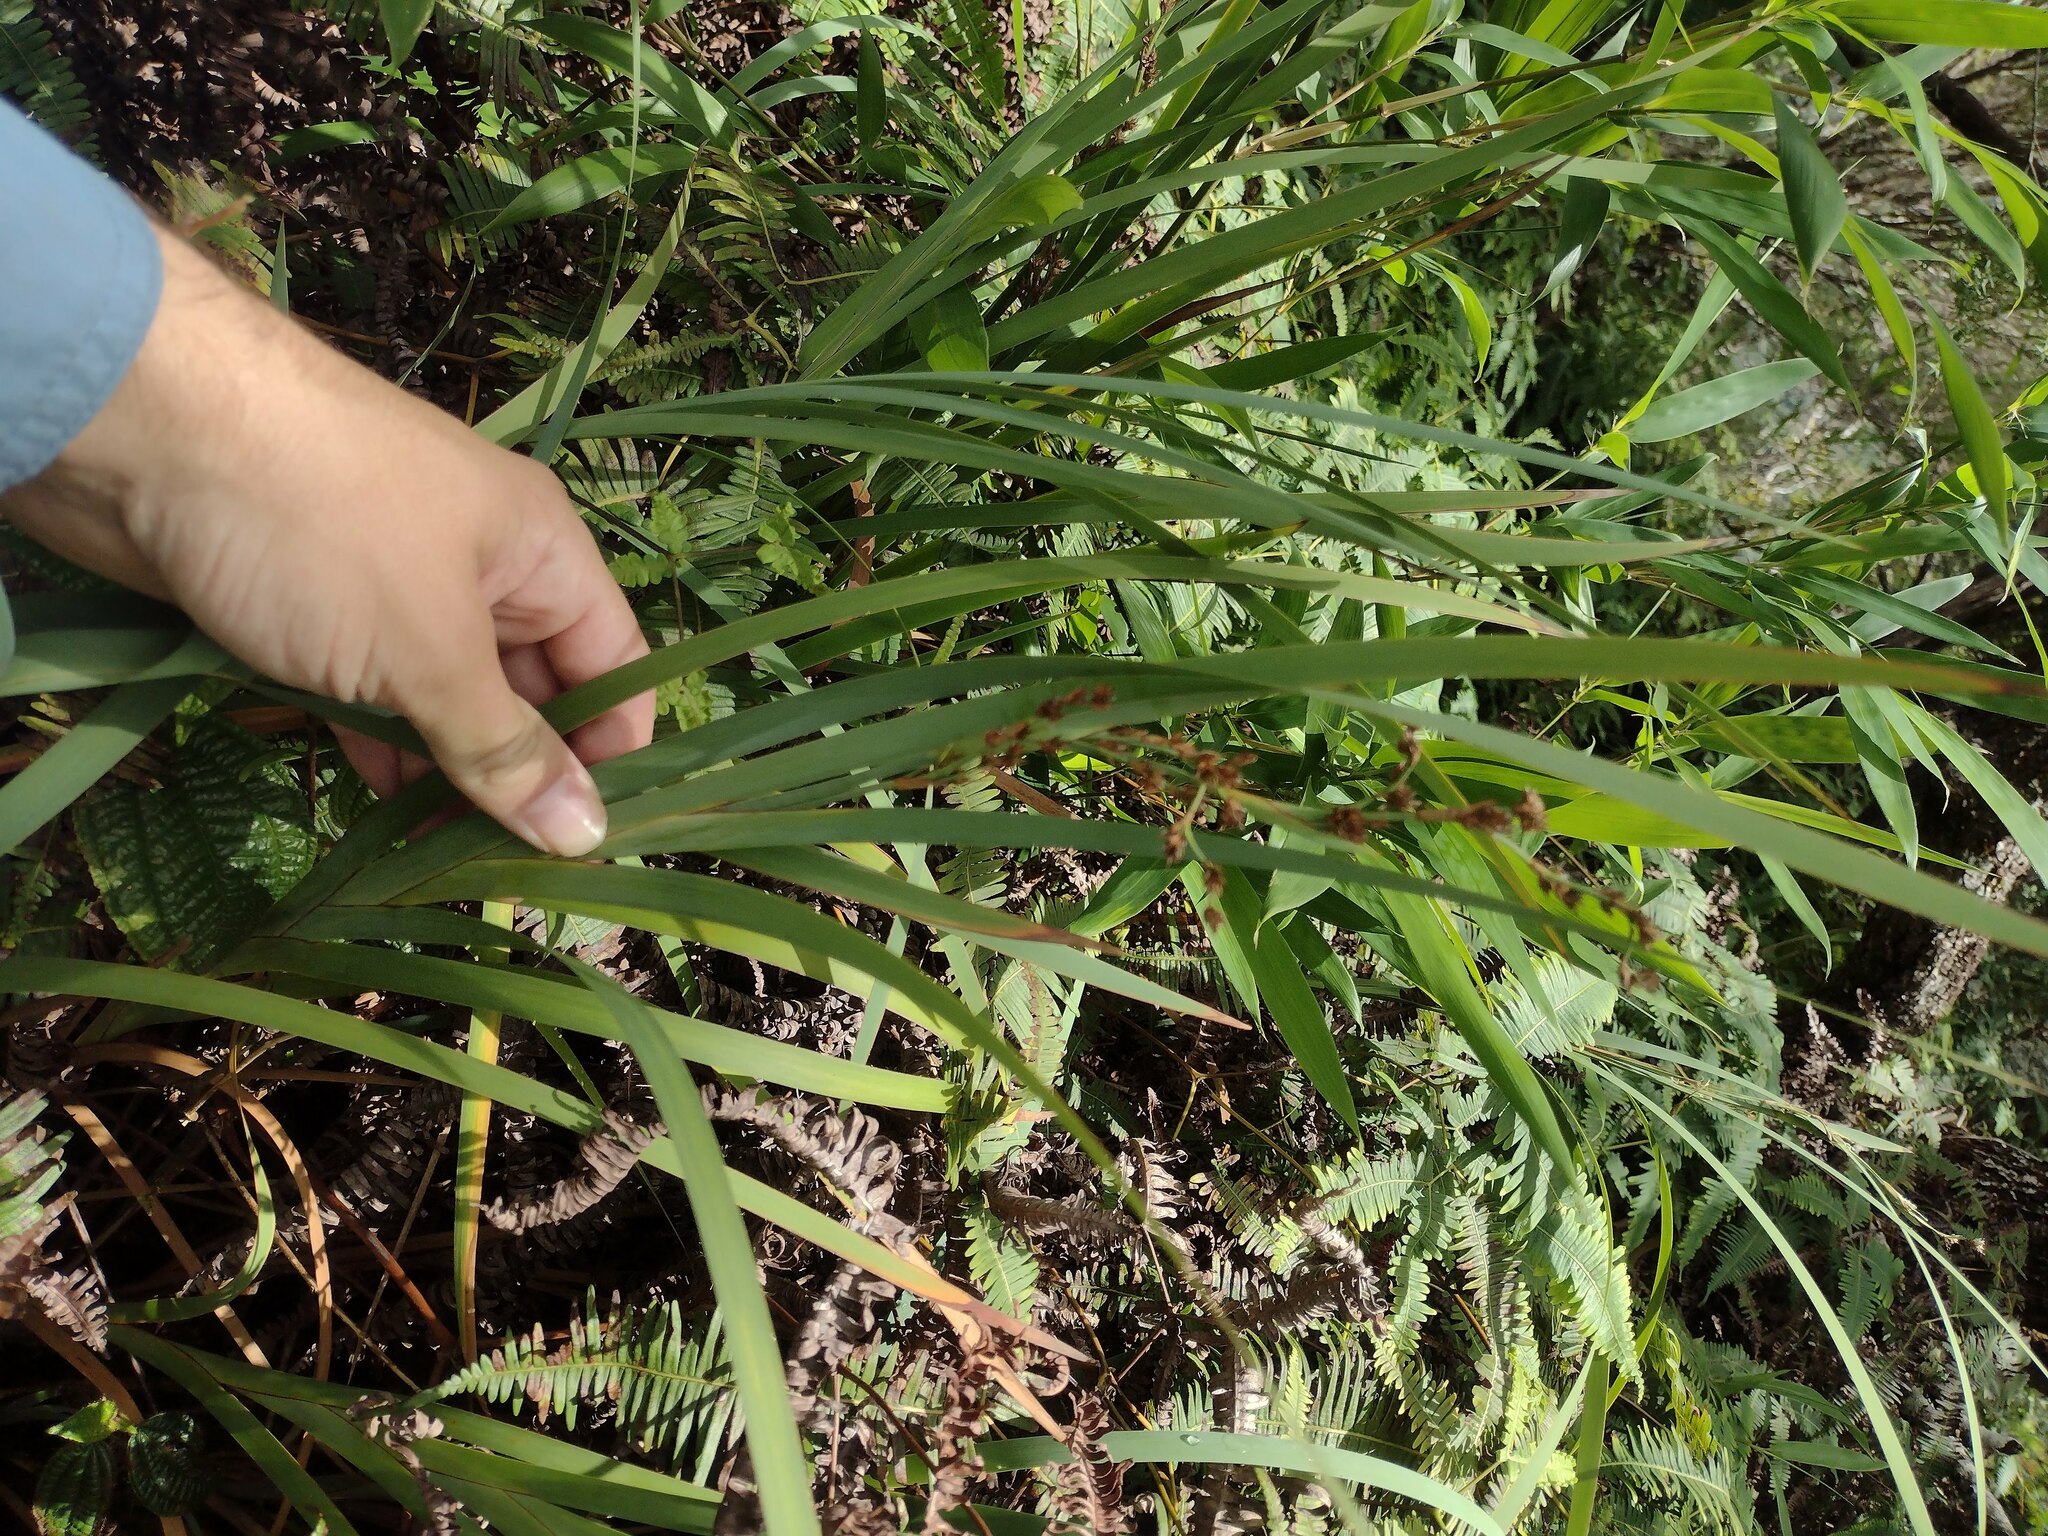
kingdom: Plantae
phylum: Tracheophyta
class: Liliopsida
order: Poales
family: Cyperaceae
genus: Machaerina
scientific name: Machaerina mariscoides
